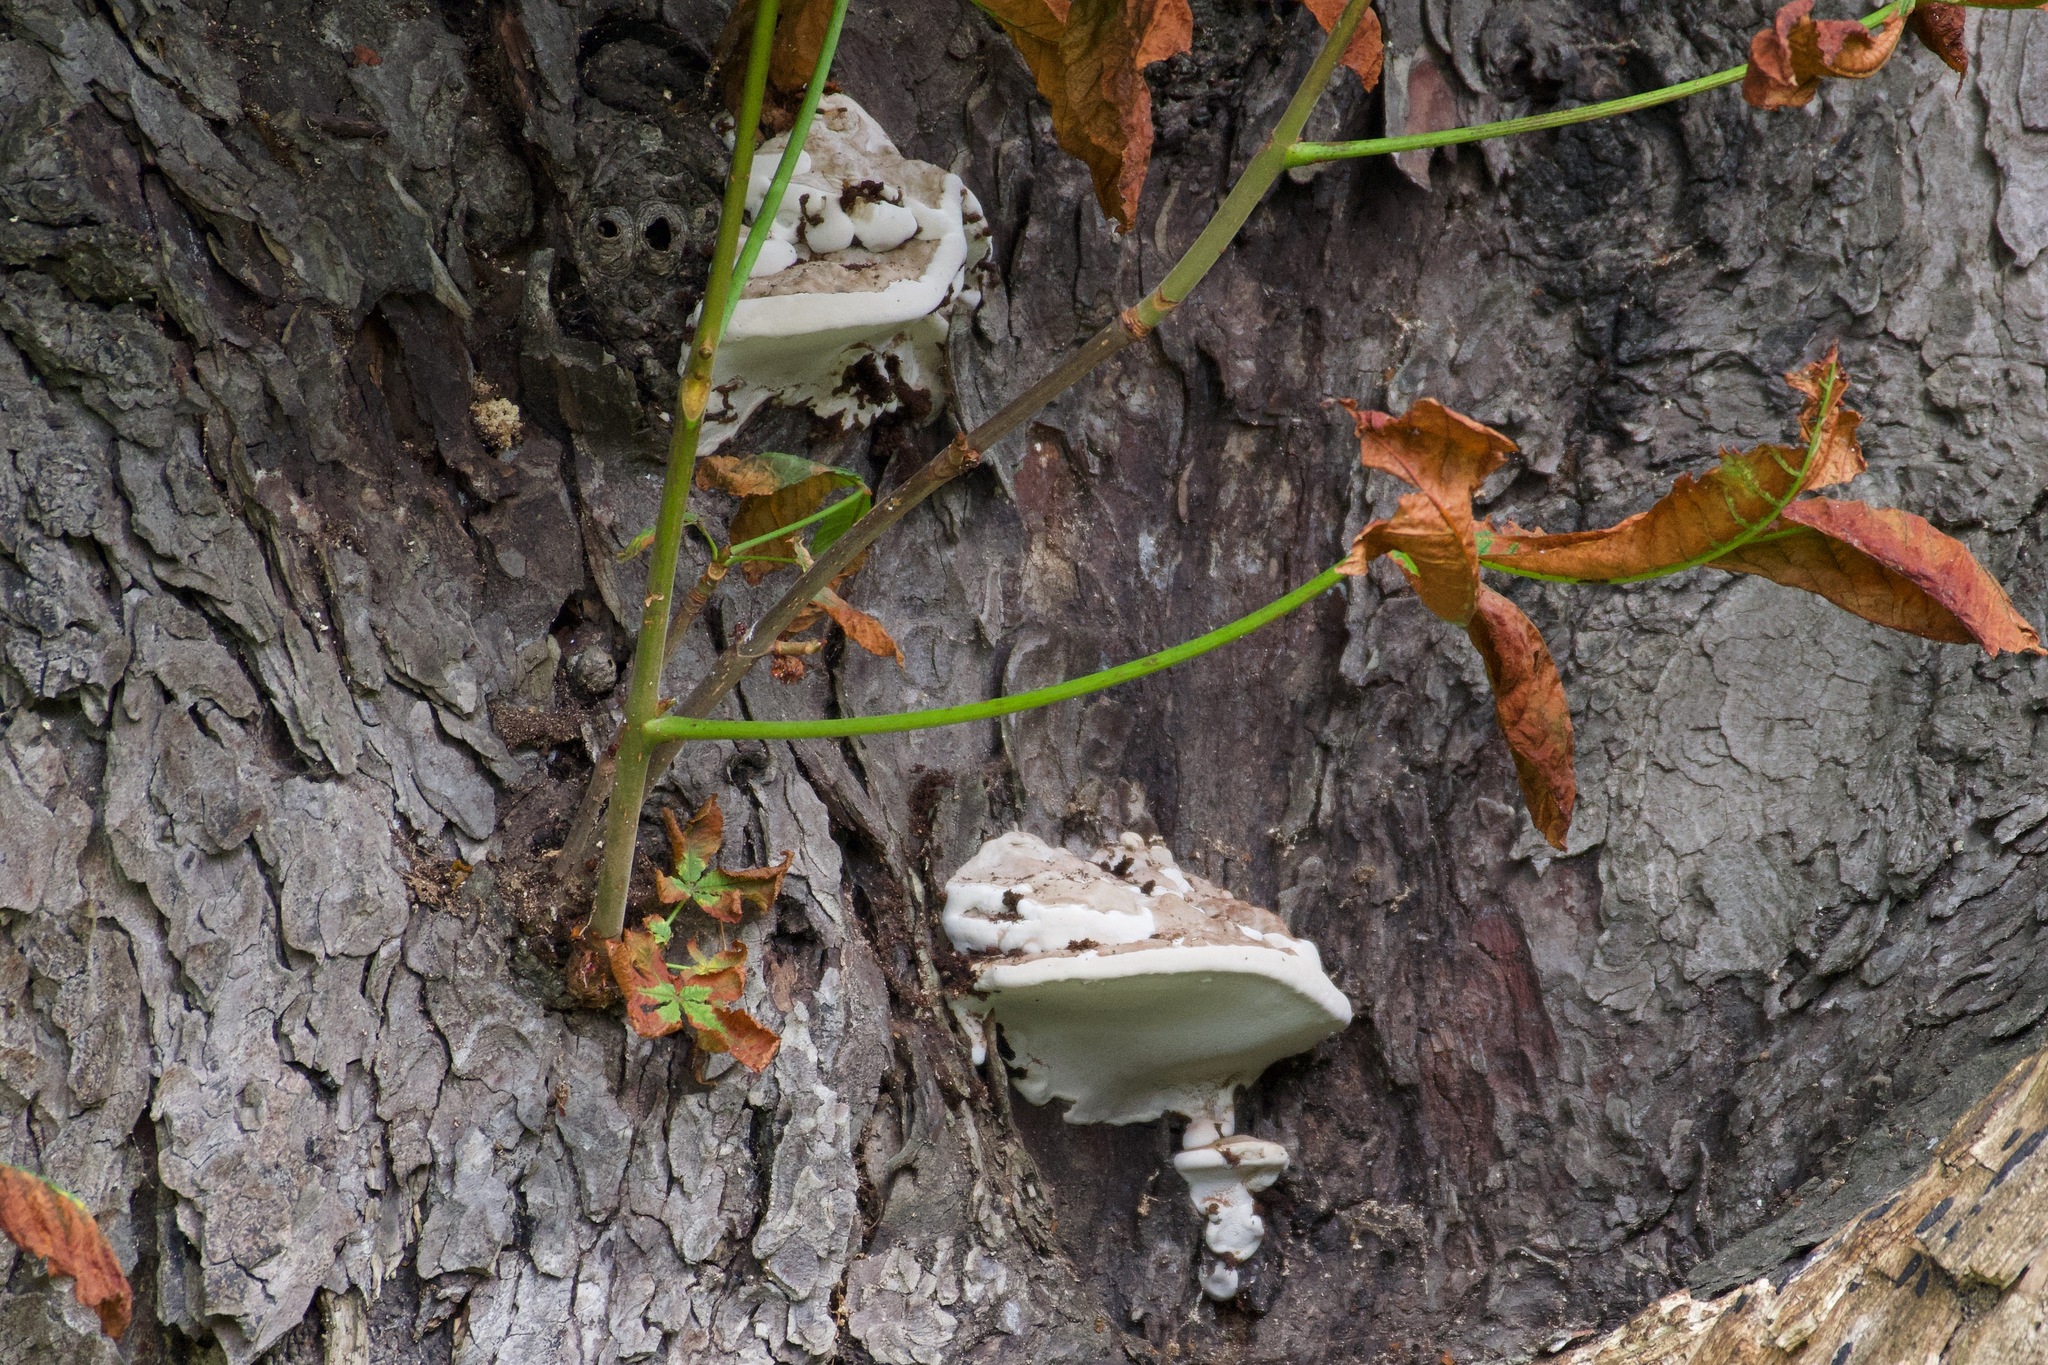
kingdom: Fungi
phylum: Basidiomycota
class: Agaricomycetes
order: Polyporales
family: Polyporaceae
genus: Ganoderma
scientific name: Ganoderma applanatum
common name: Artist's bracket
